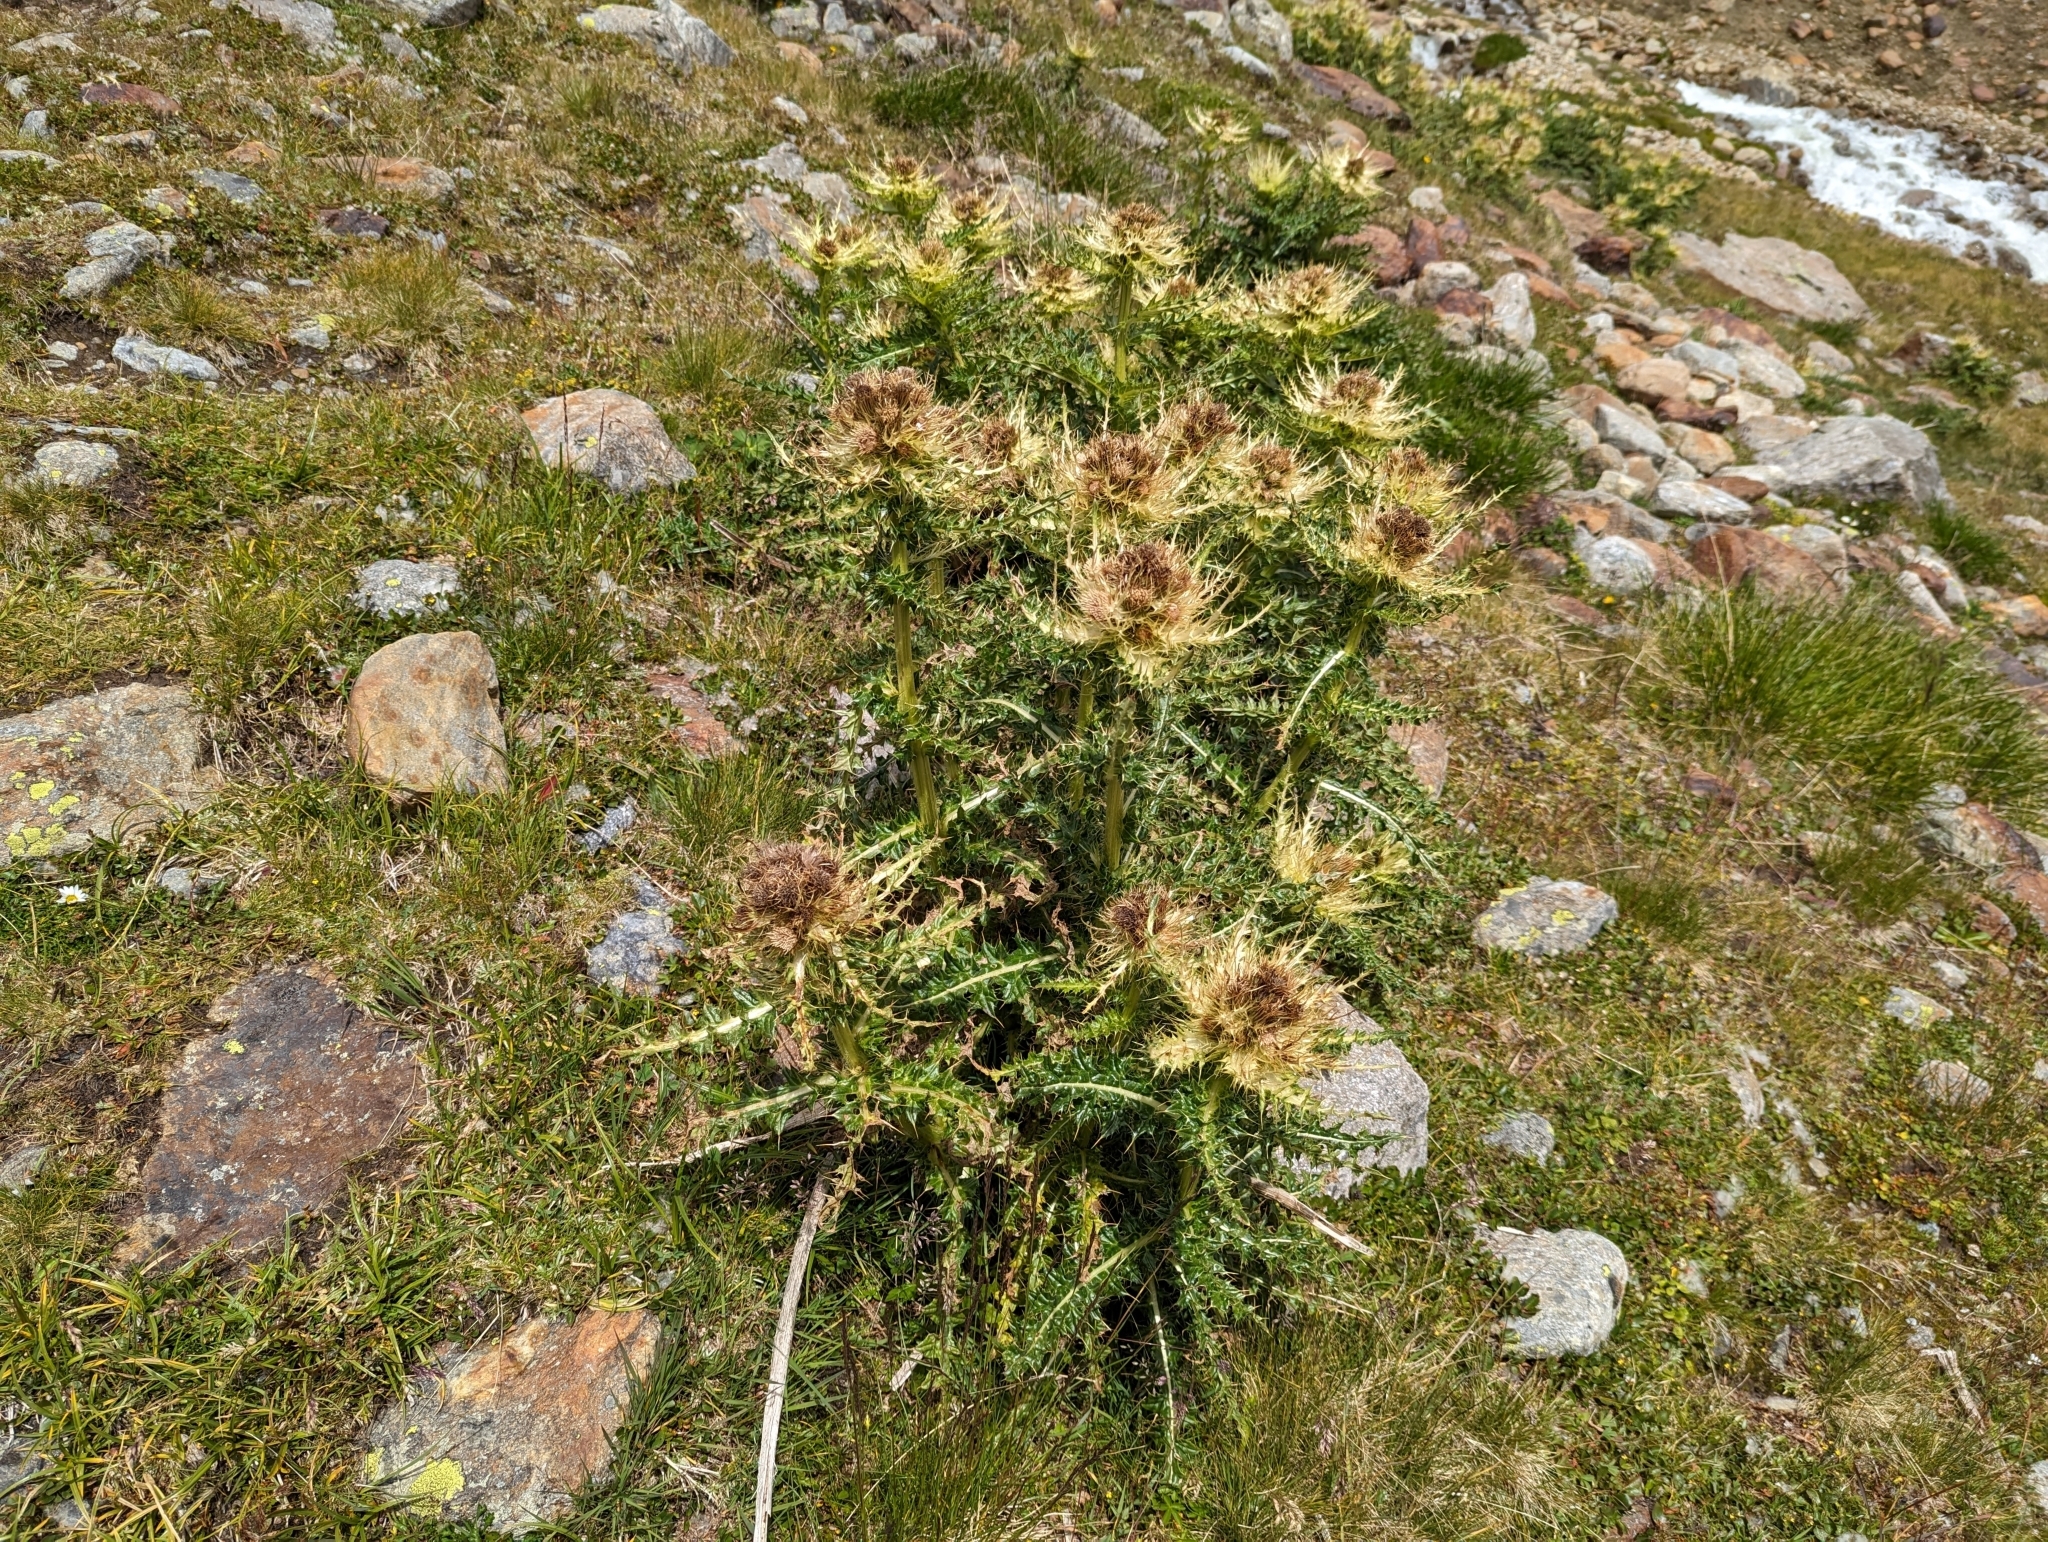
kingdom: Plantae
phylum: Tracheophyta
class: Magnoliopsida
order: Asterales
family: Asteraceae
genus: Cirsium
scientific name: Cirsium spinosissimum
